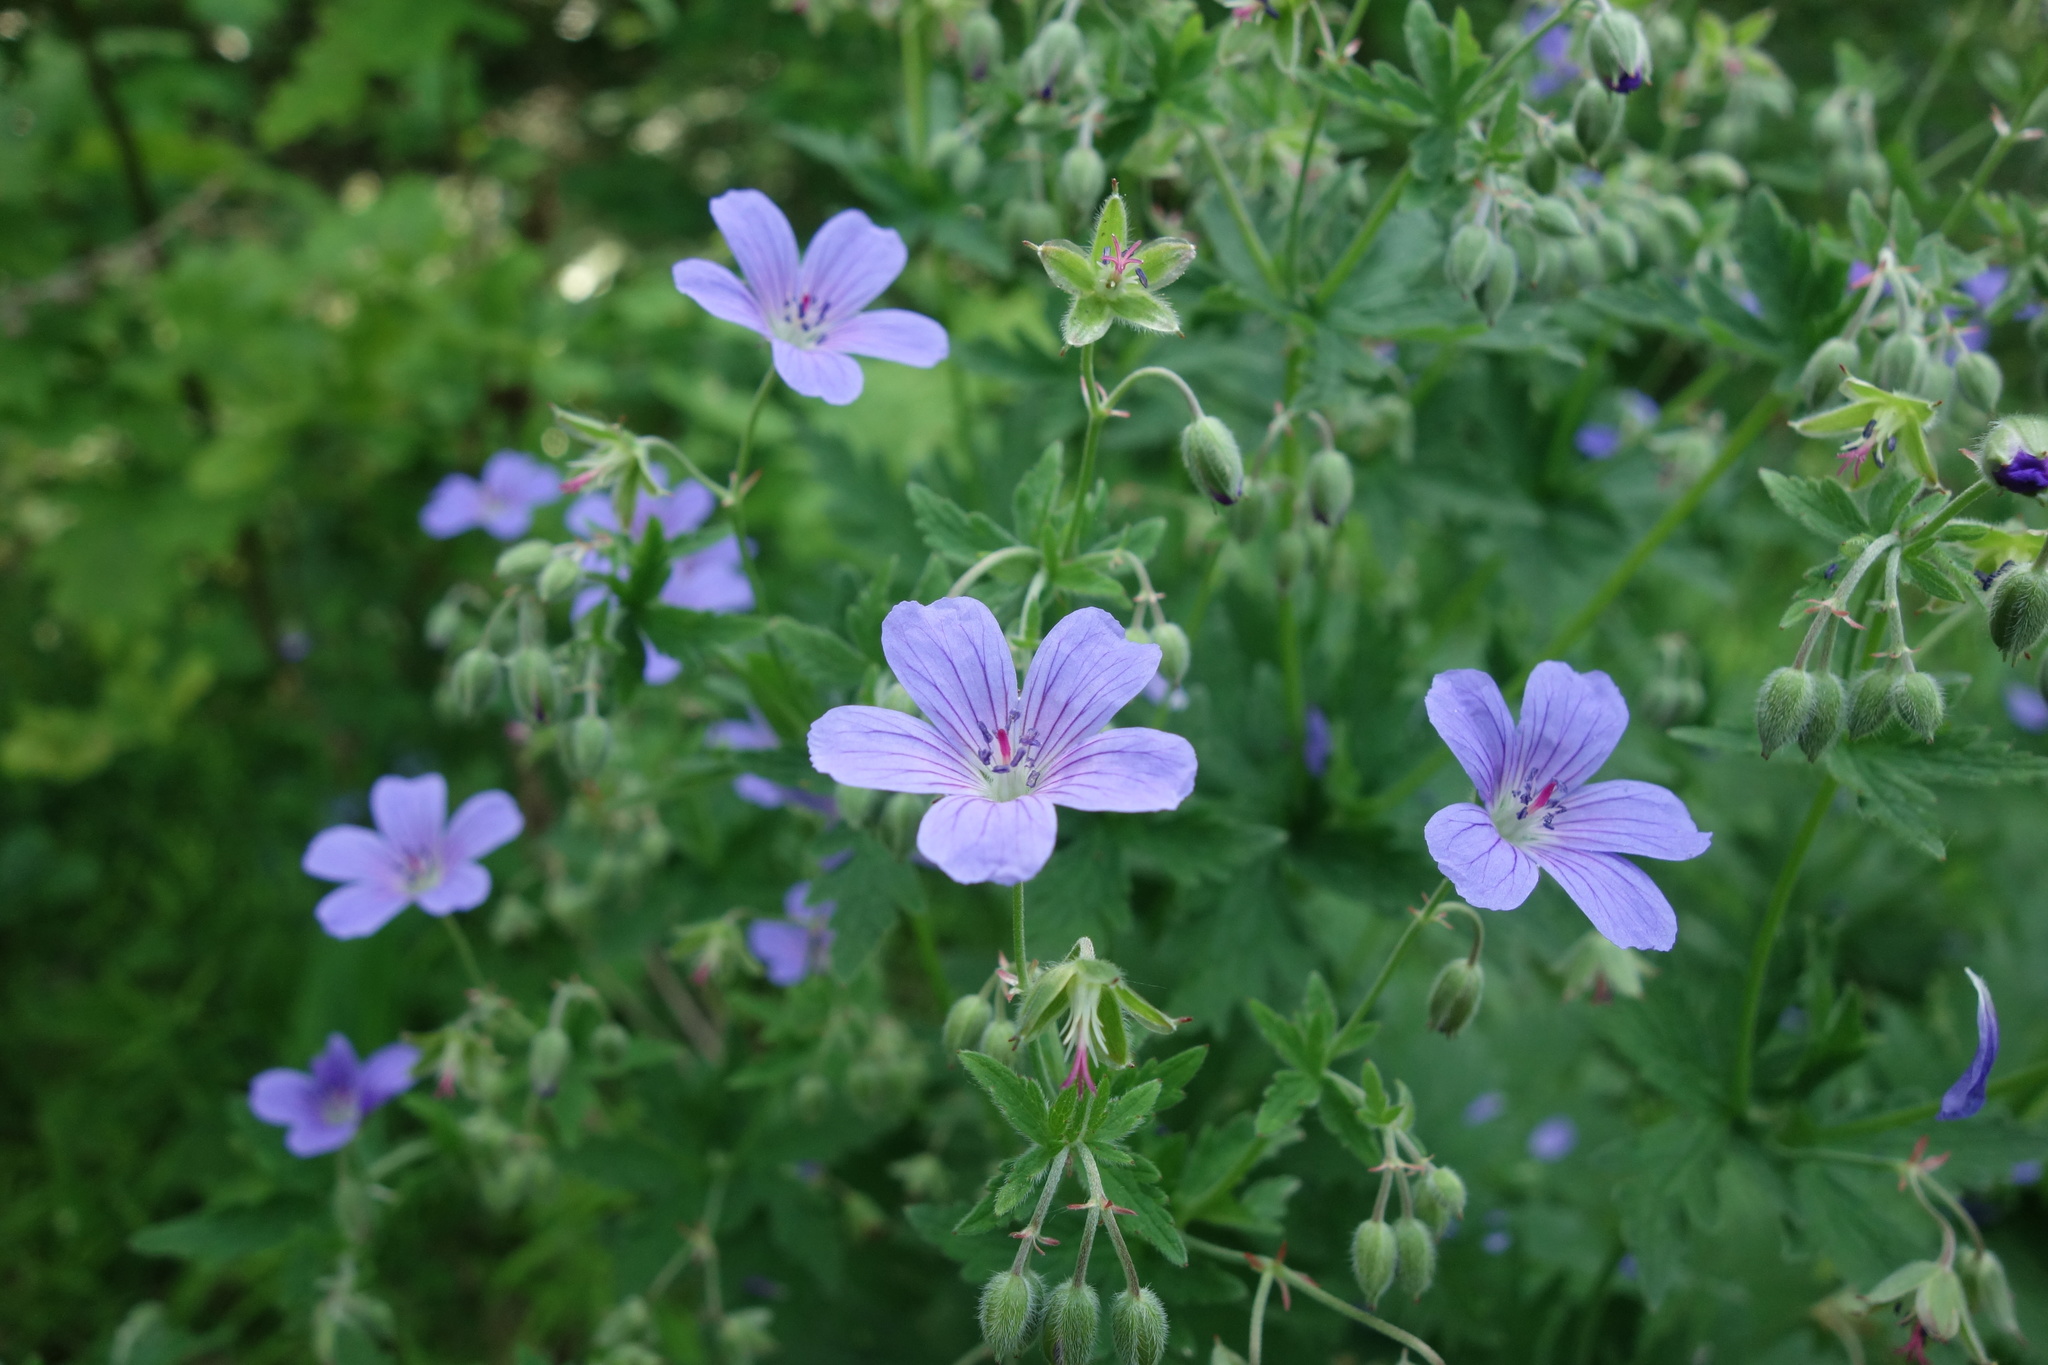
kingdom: Plantae
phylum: Tracheophyta
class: Magnoliopsida
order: Geraniales
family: Geraniaceae
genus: Geranium
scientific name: Geranium sylvaticum
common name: Wood crane's-bill
